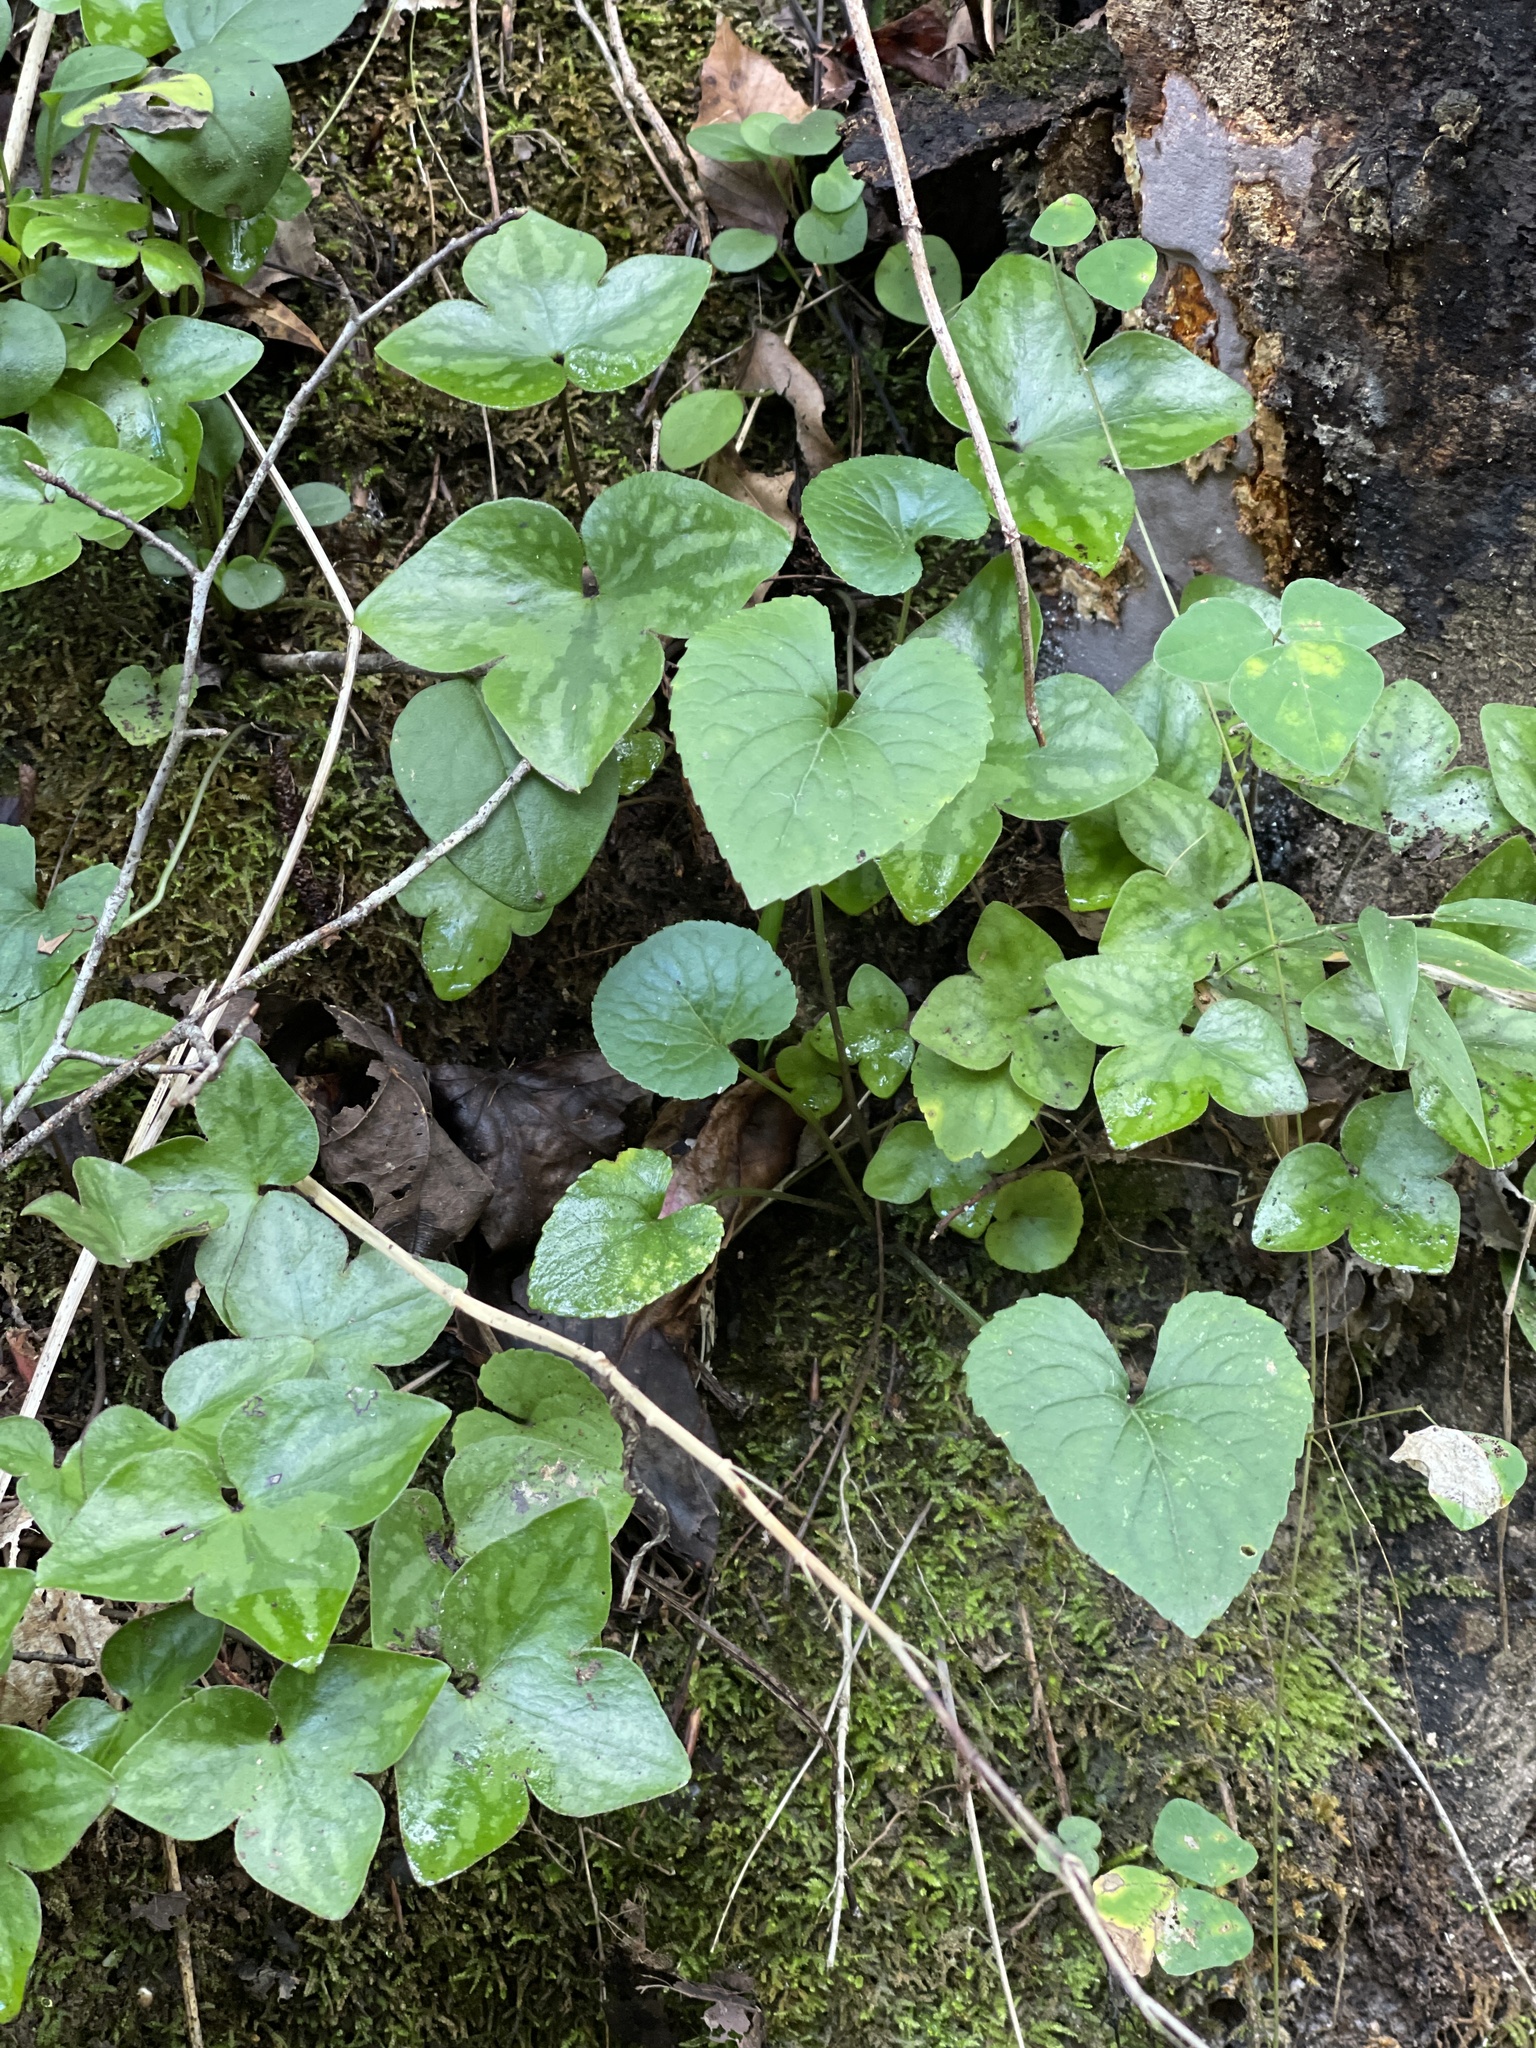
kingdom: Plantae
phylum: Tracheophyta
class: Magnoliopsida
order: Ranunculales
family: Ranunculaceae
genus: Hepatica
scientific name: Hepatica acutiloba
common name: Sharp-lobed hepatica
